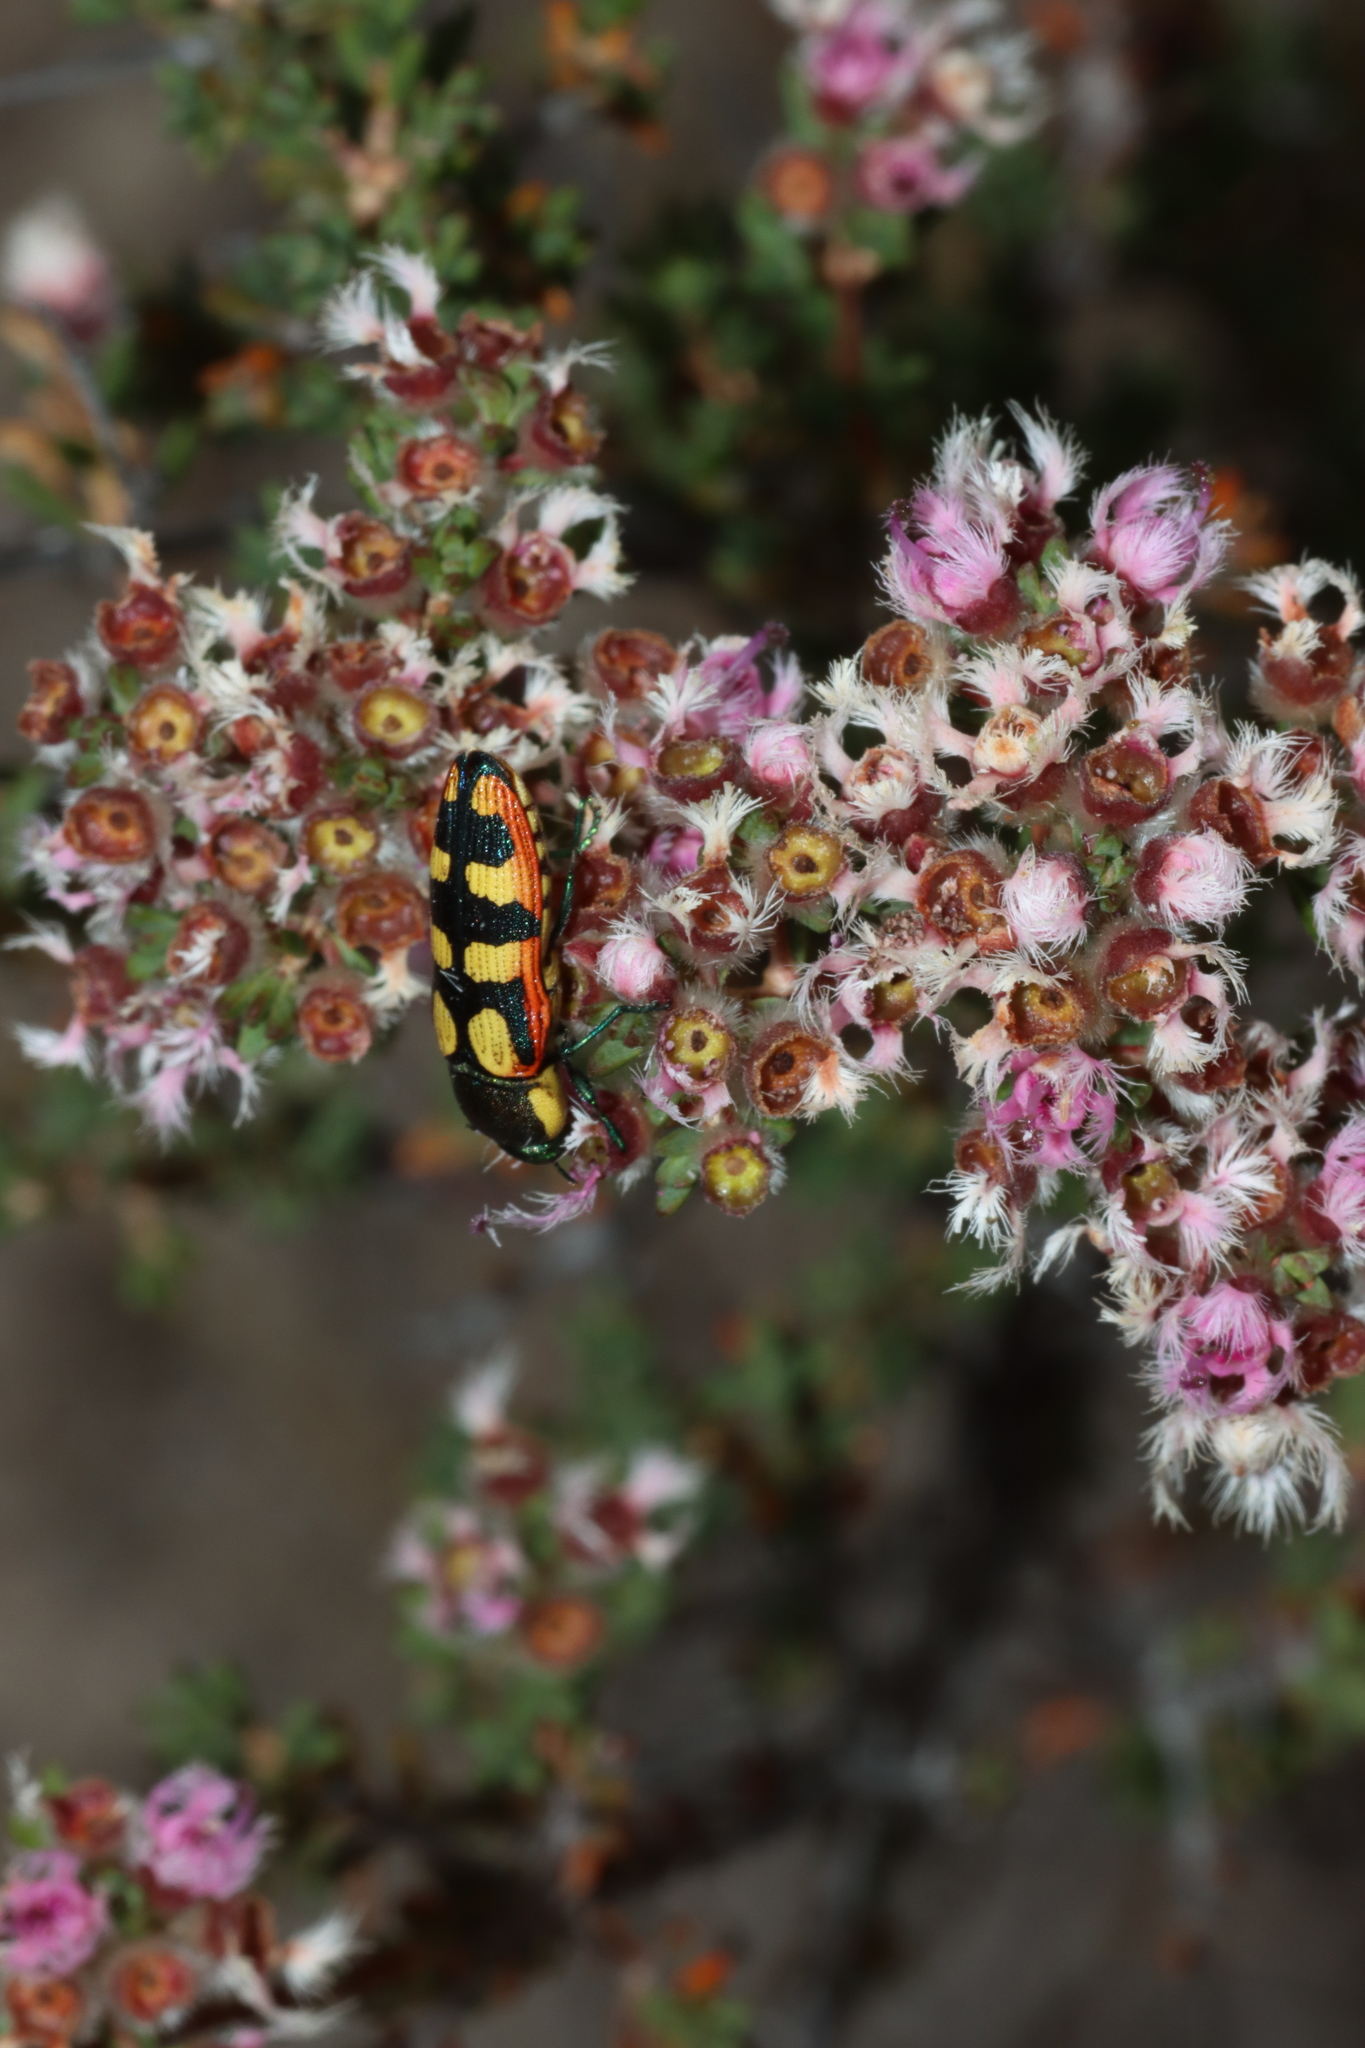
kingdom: Animalia
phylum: Arthropoda
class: Insecta
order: Coleoptera
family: Buprestidae
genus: Castiarina
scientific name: Castiarina pallidiventris
